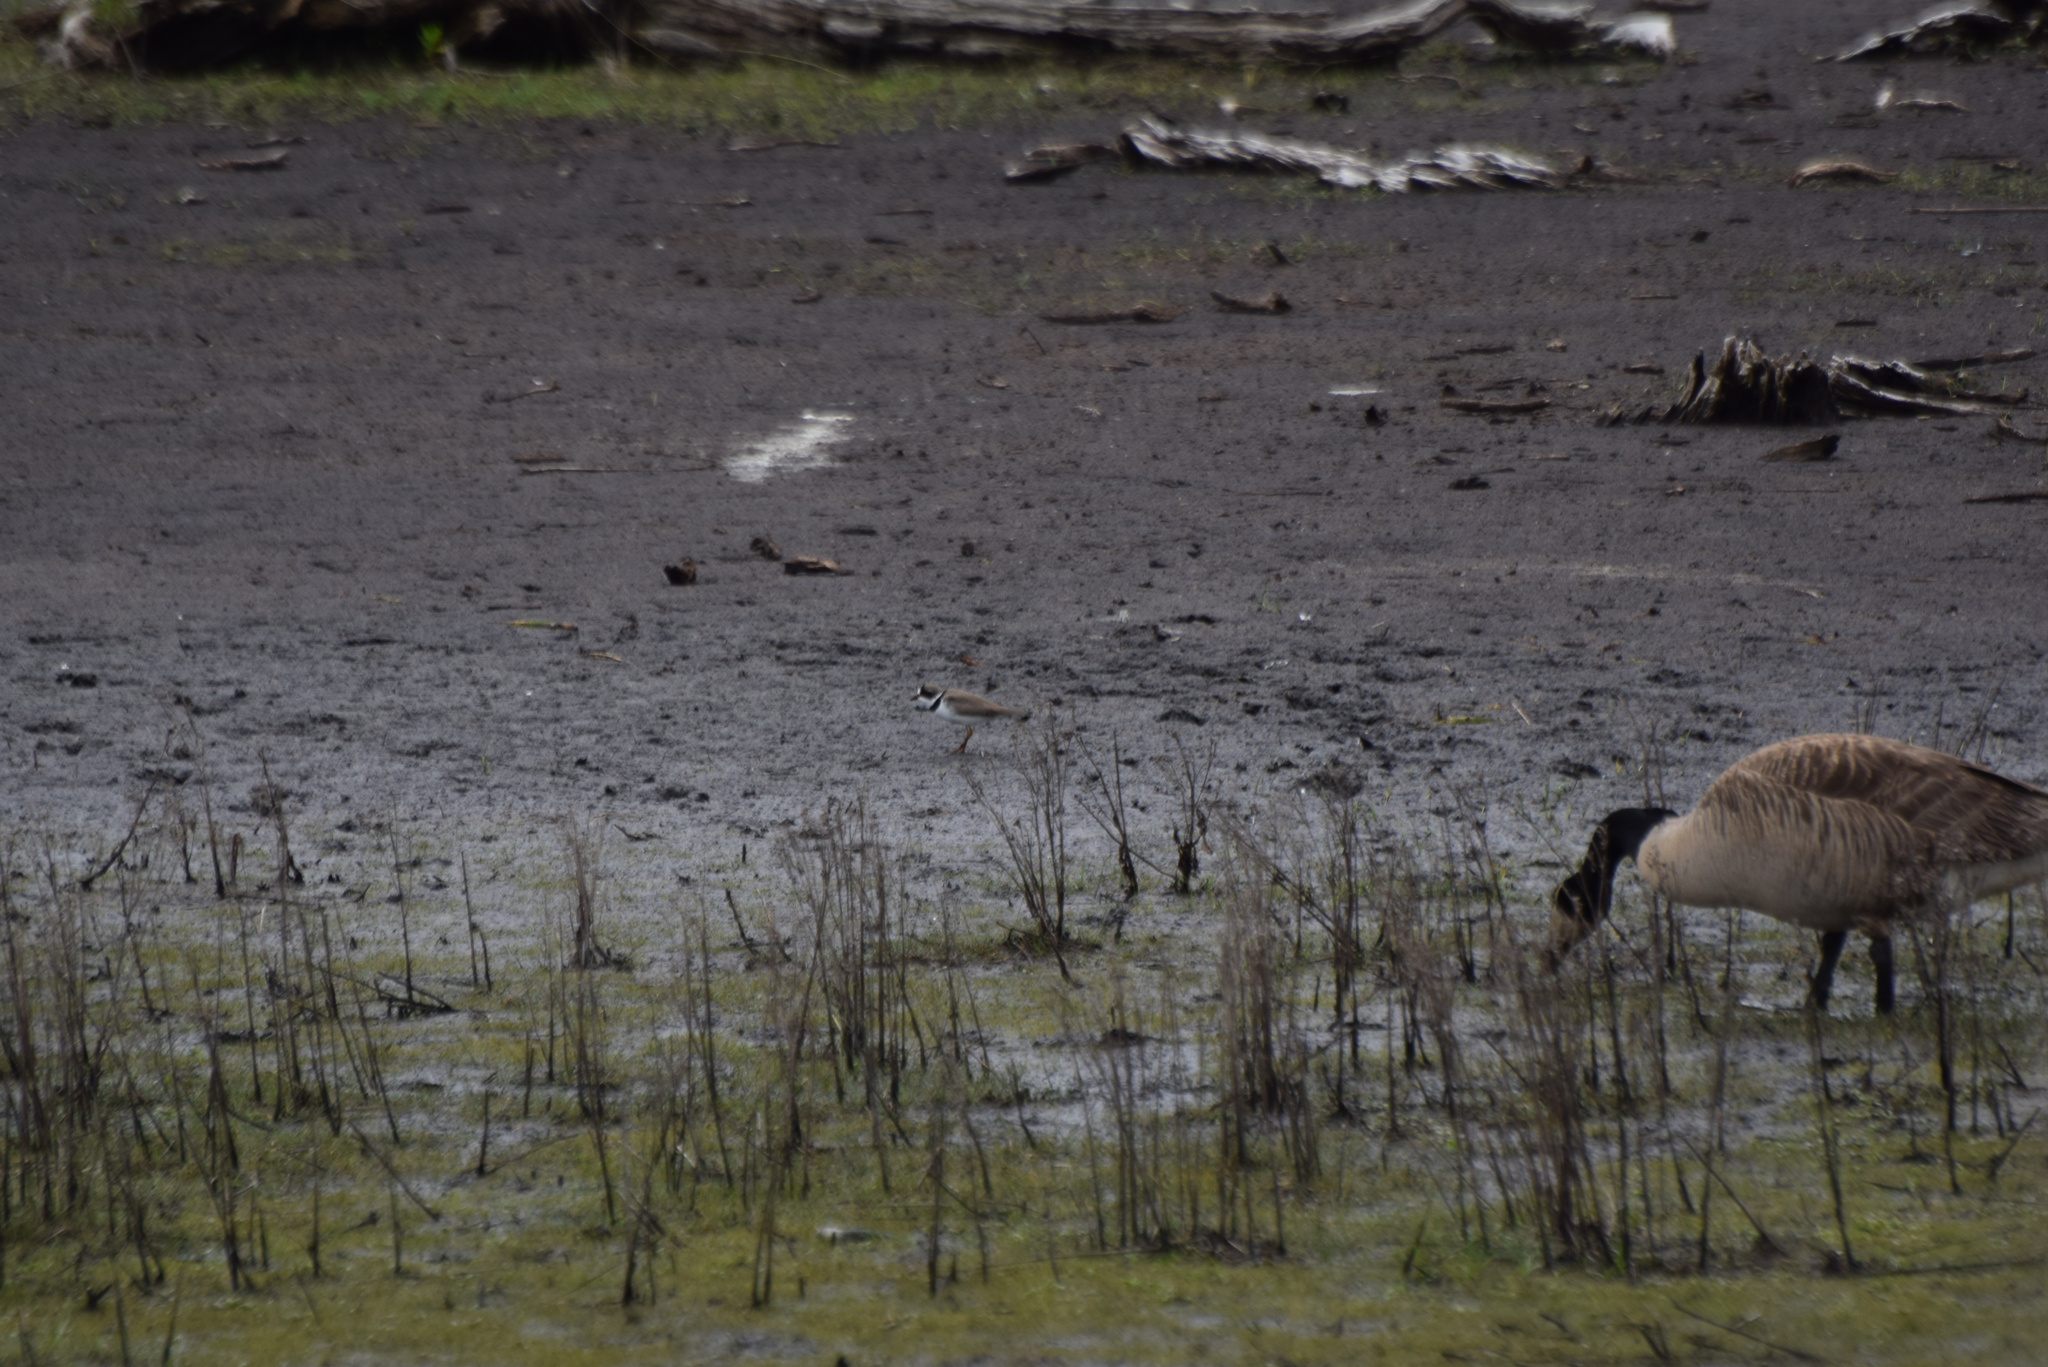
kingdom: Animalia
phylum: Chordata
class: Aves
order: Charadriiformes
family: Charadriidae
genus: Charadrius
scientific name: Charadrius semipalmatus
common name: Semipalmated plover
